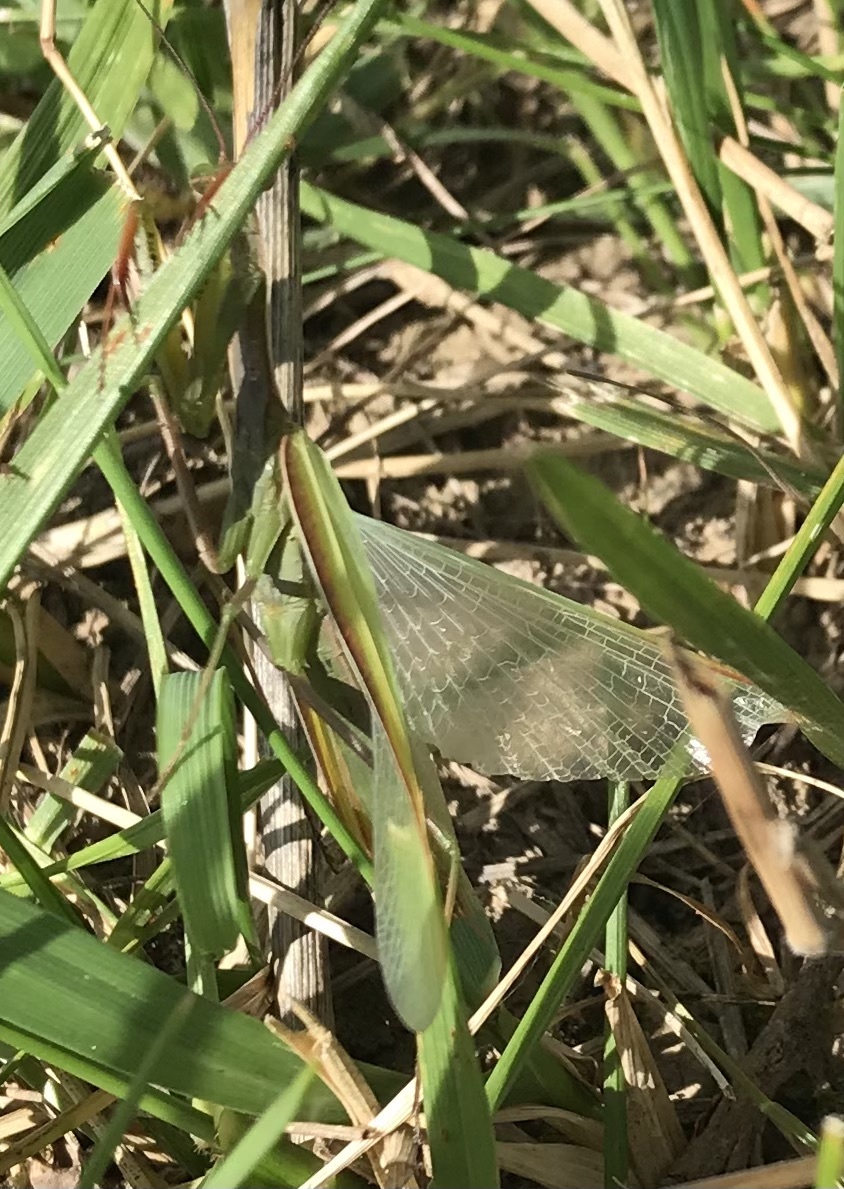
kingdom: Animalia
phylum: Arthropoda
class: Insecta
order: Mantodea
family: Mantidae
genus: Mantis
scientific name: Mantis religiosa
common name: Praying mantis
